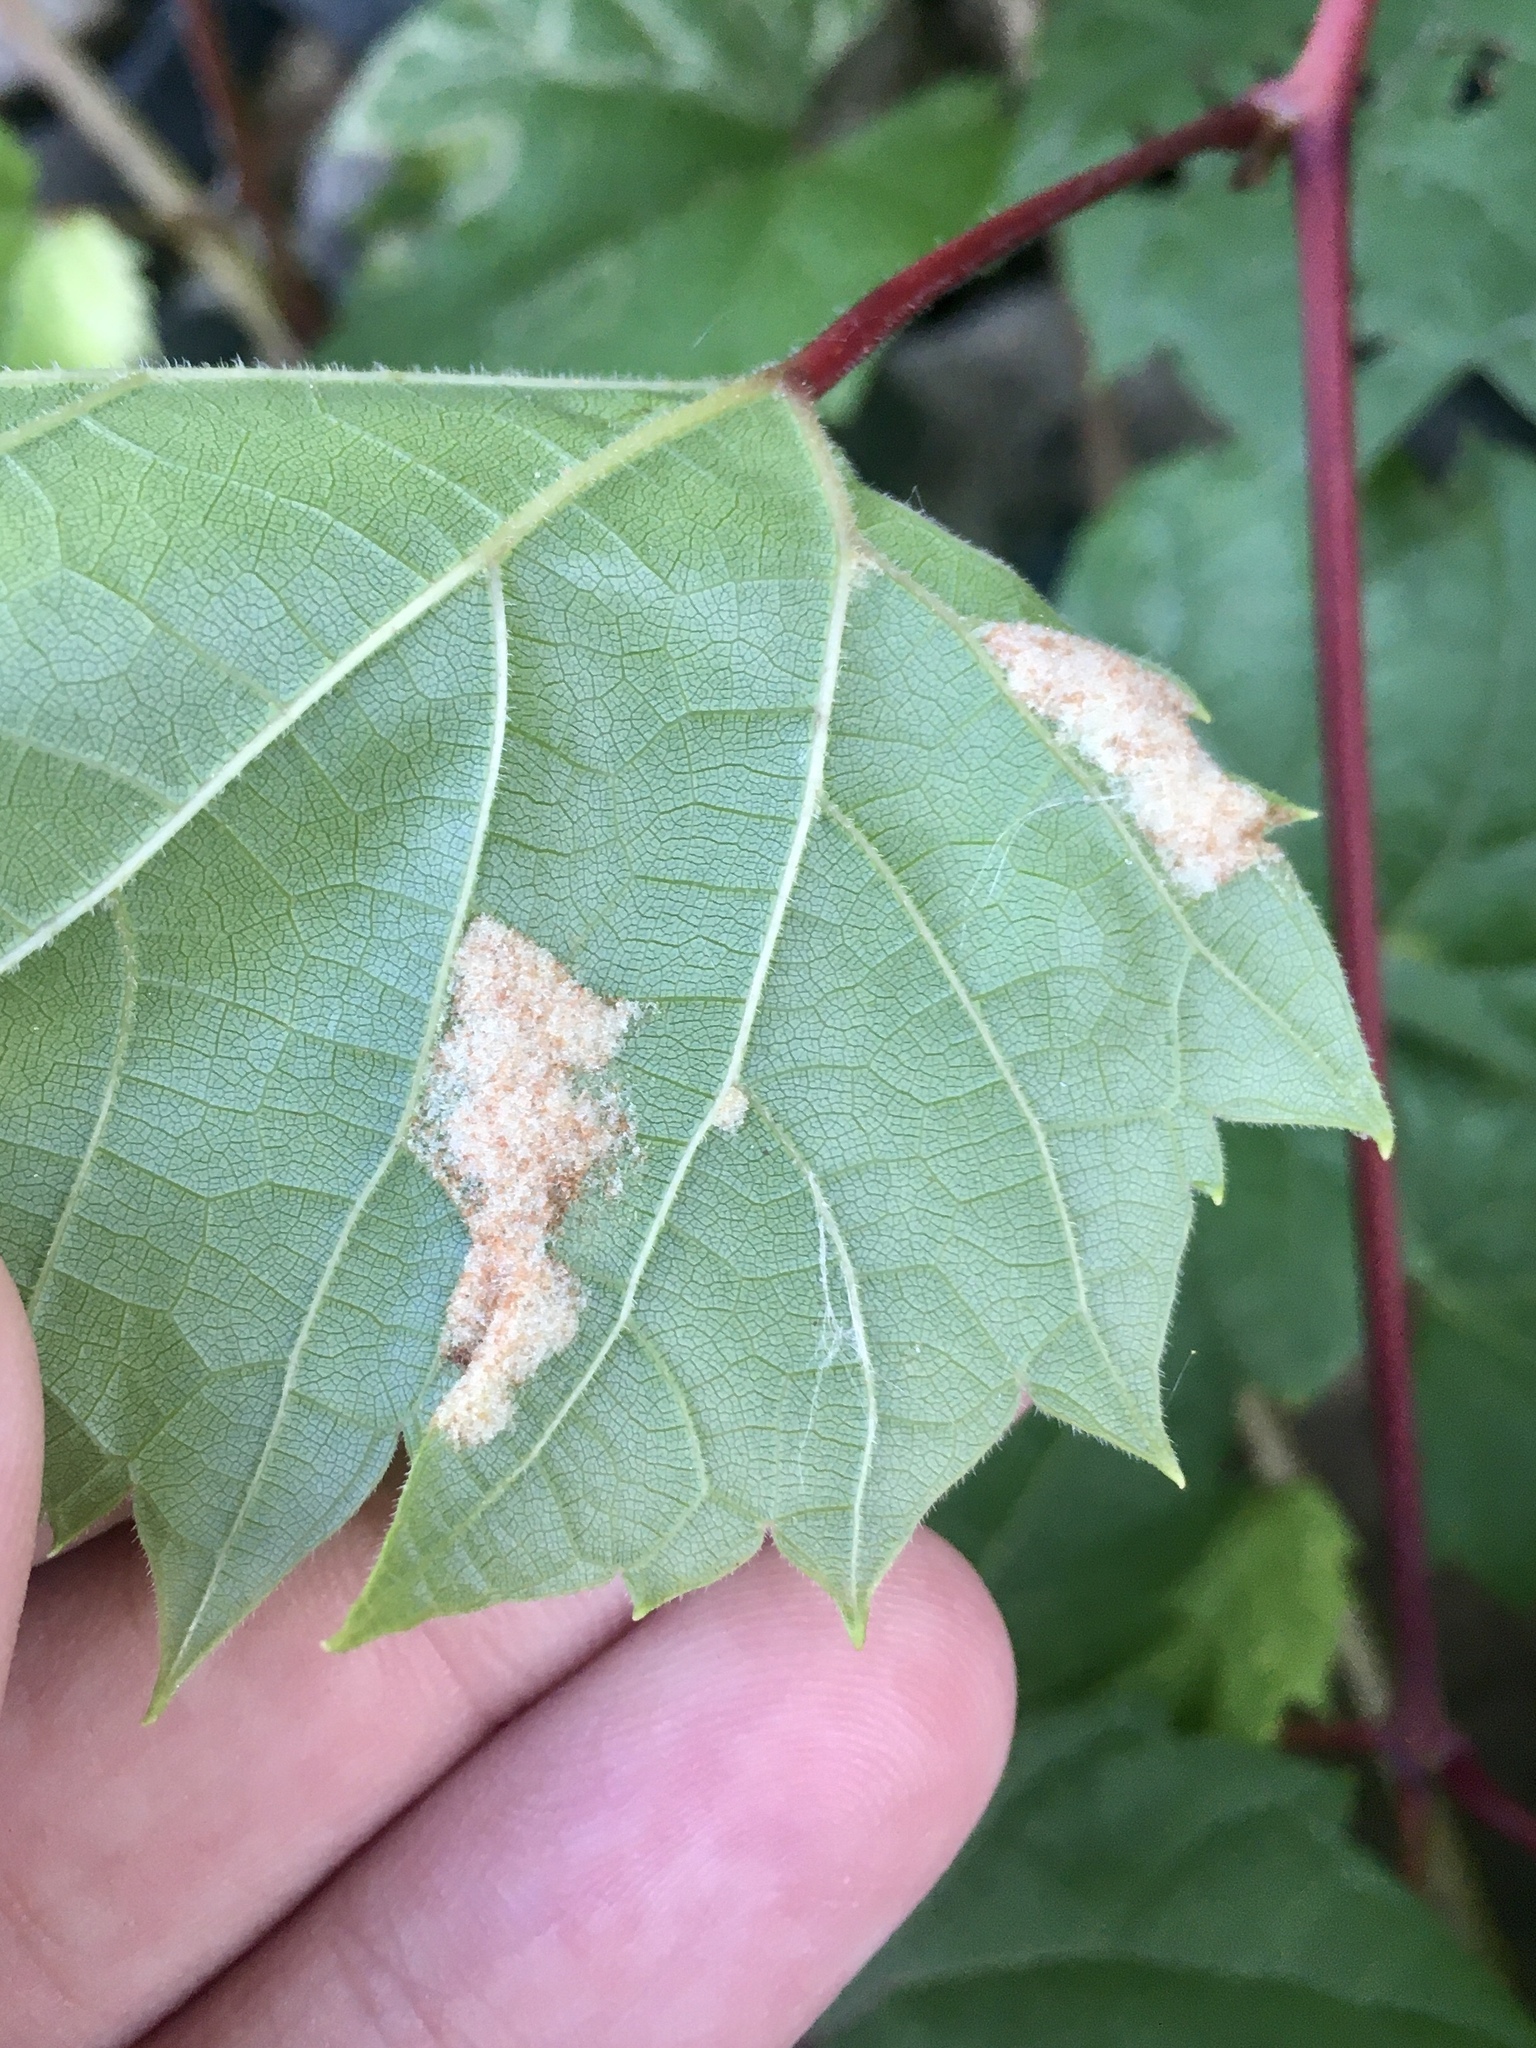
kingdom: Animalia
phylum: Arthropoda
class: Arachnida
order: Trombidiformes
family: Eriophyidae
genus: Colomerus
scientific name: Colomerus vitis
